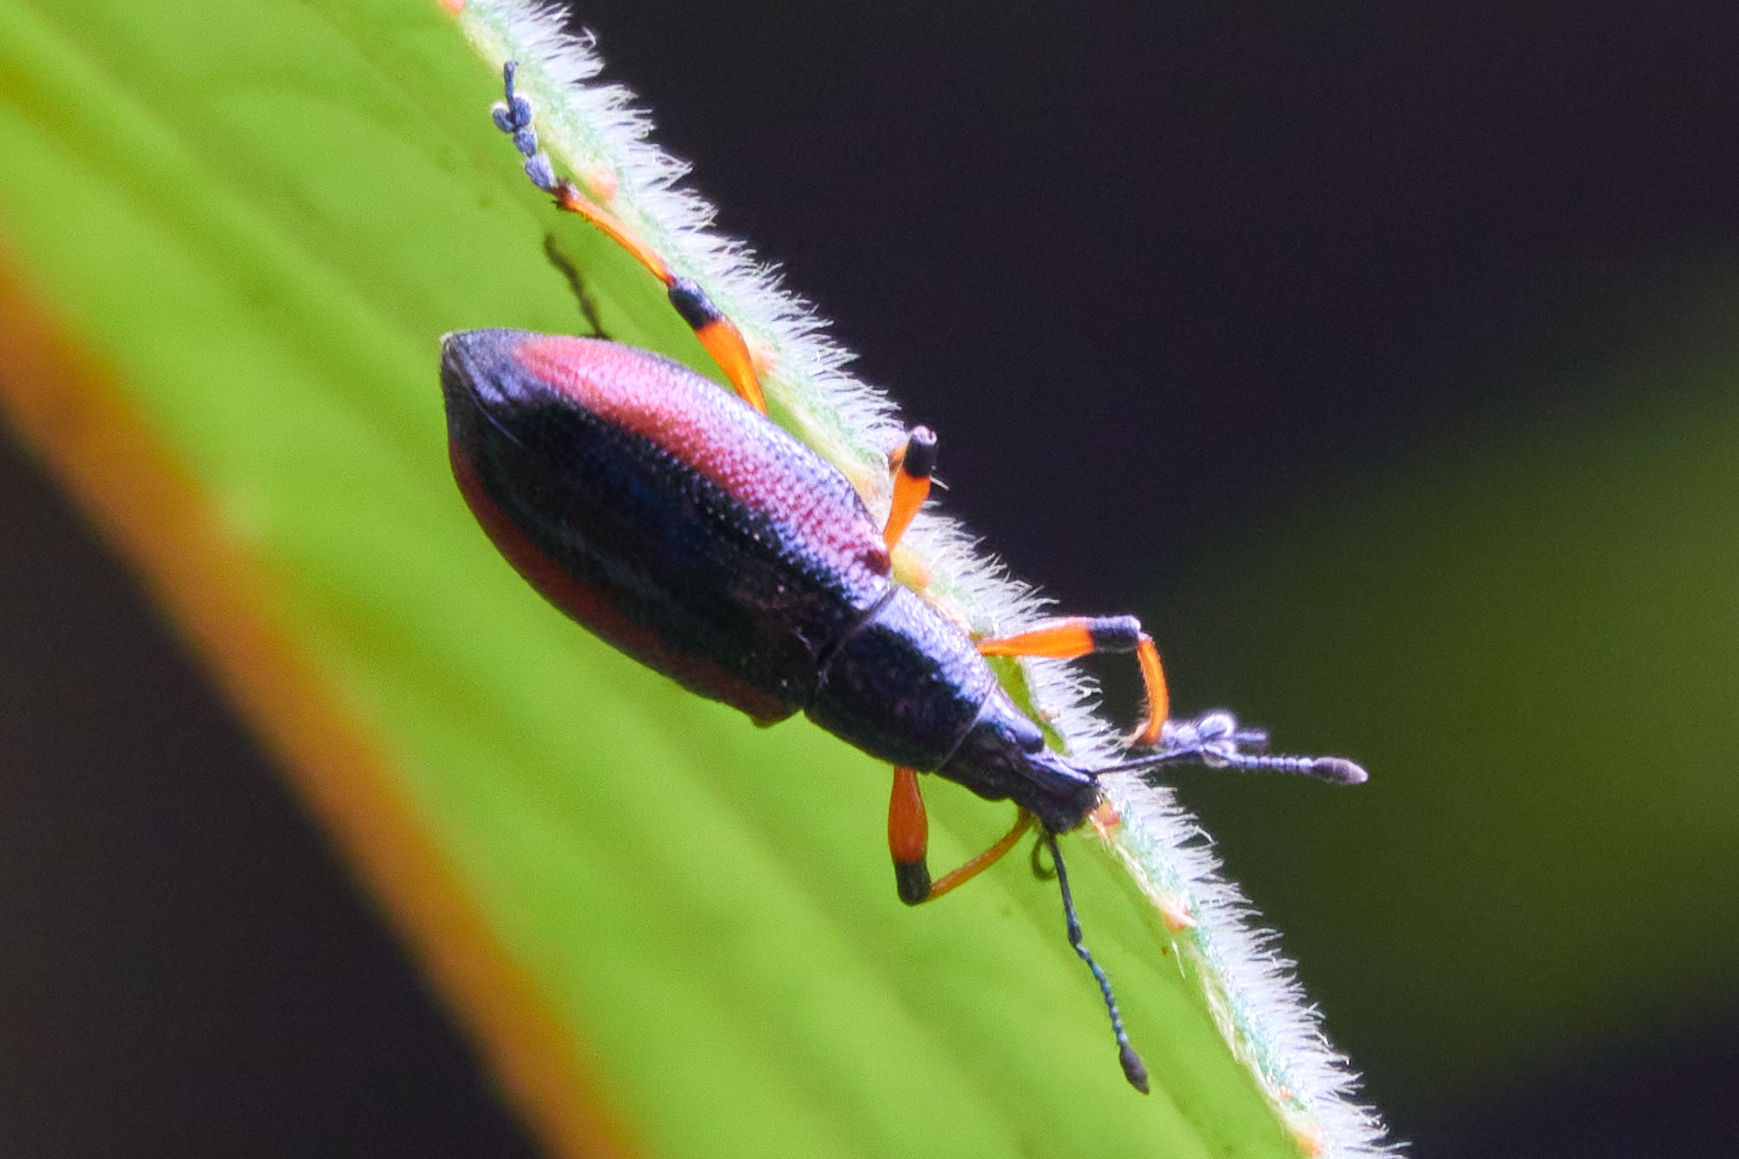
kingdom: Animalia
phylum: Arthropoda
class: Insecta
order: Coleoptera
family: Curculionidae
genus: Chauliopleurus
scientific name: Chauliopleurus rufovittatus
